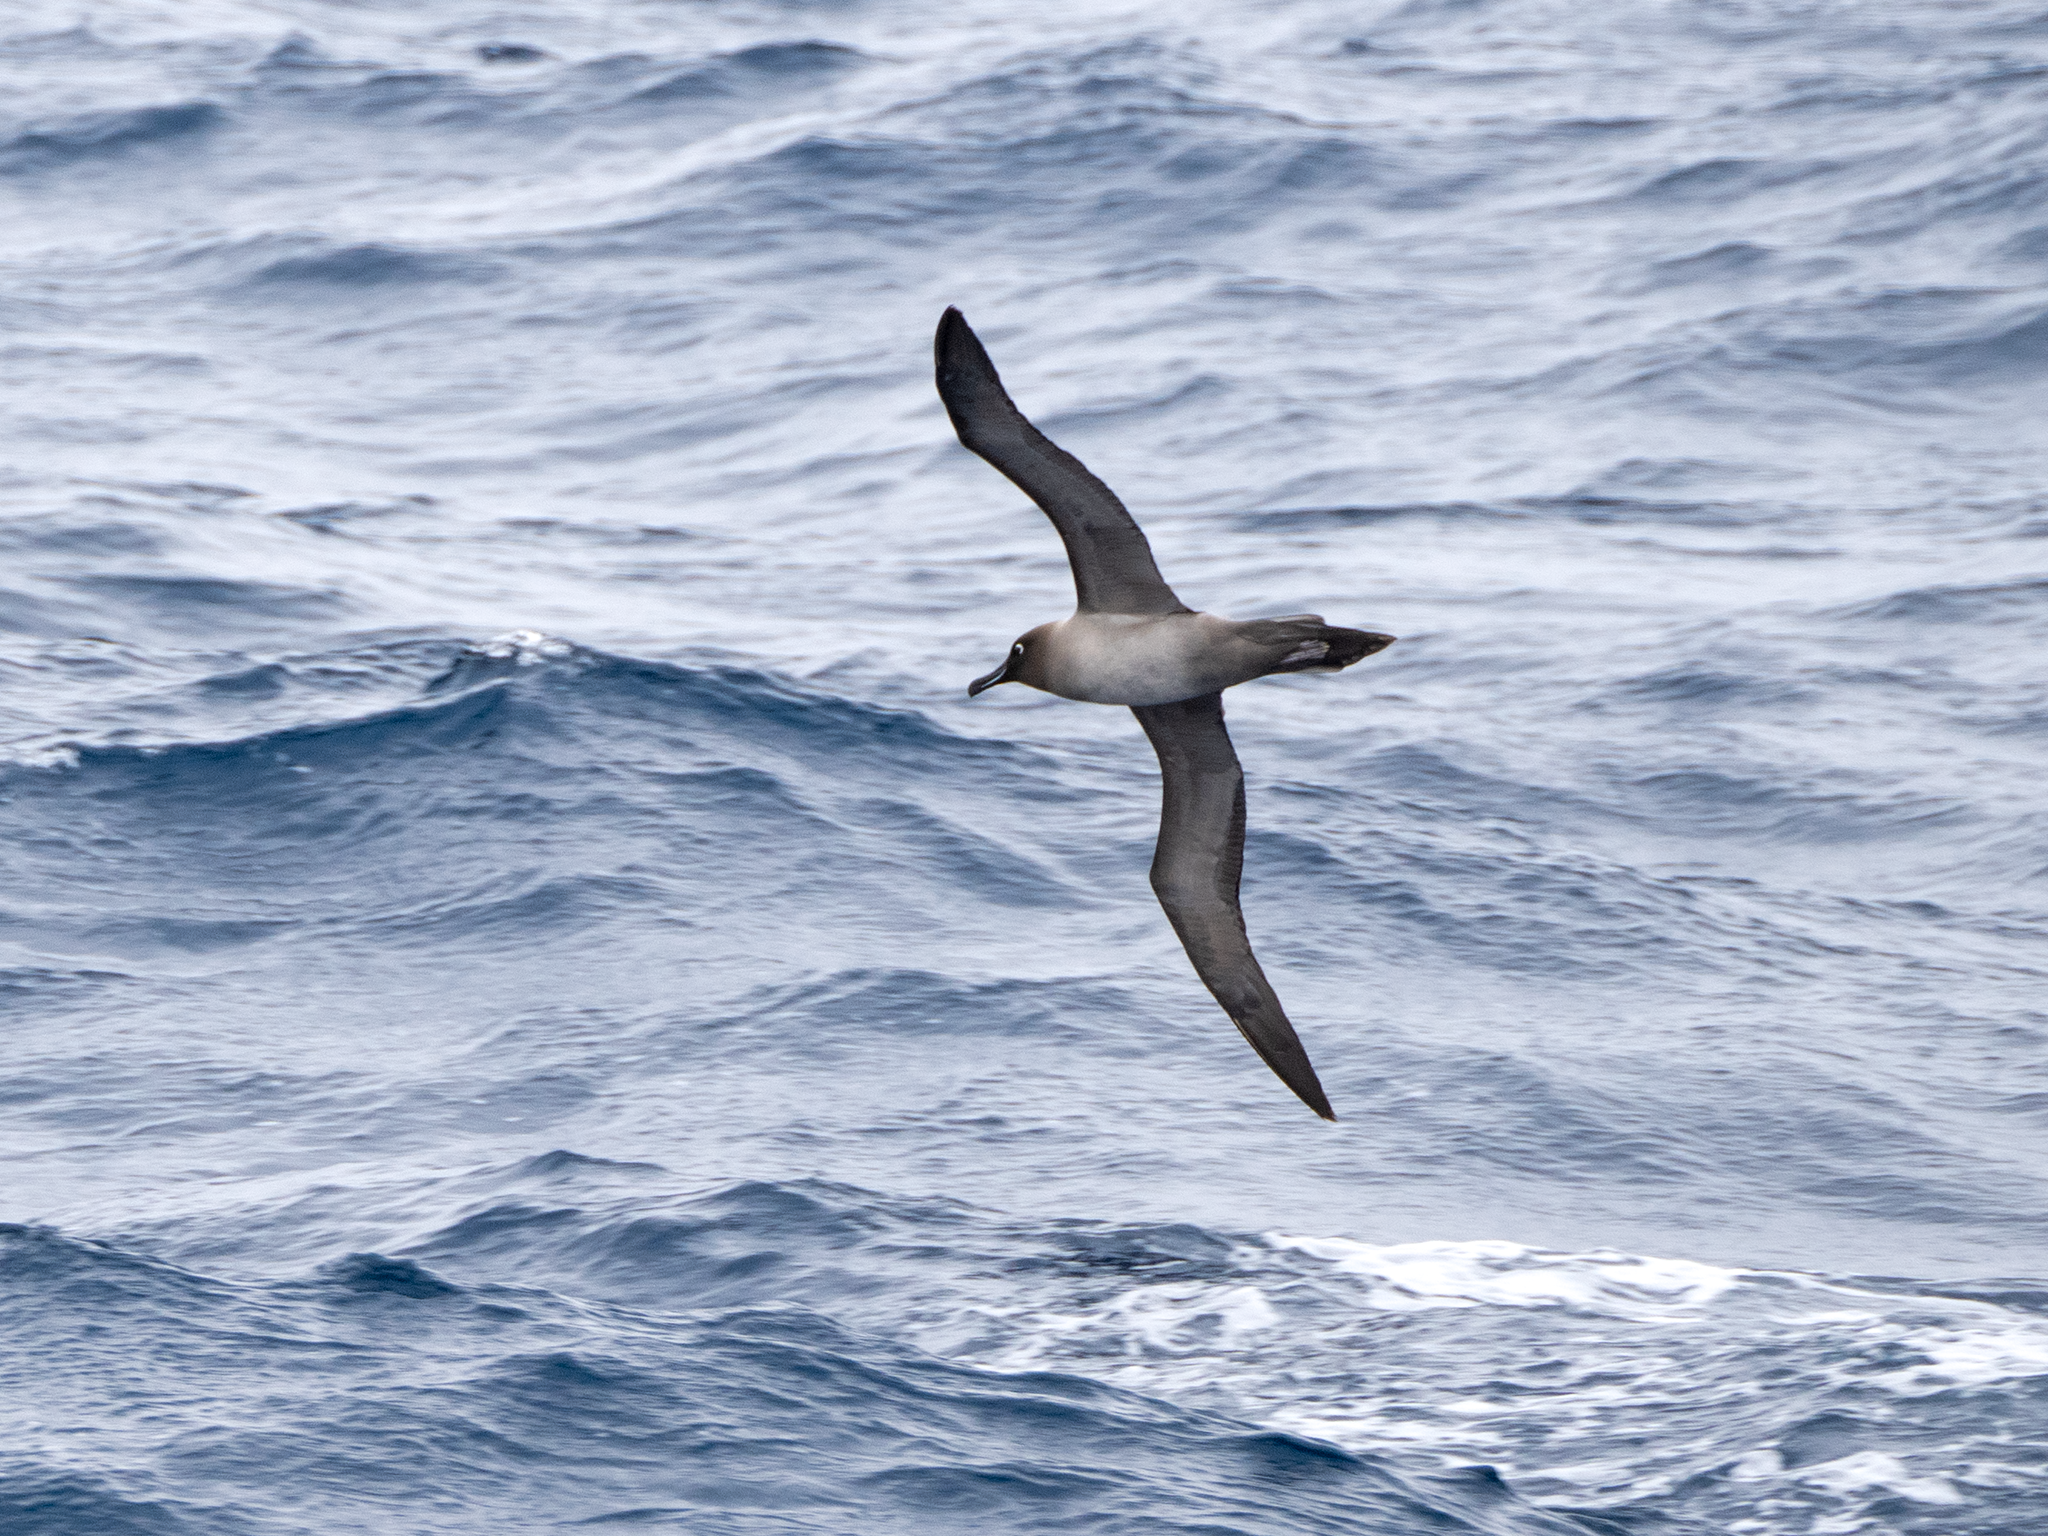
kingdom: Animalia
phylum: Chordata
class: Aves
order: Procellariiformes
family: Diomedeidae
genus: Phoebetria
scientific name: Phoebetria palpebrata
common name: Light-mantled albatross
